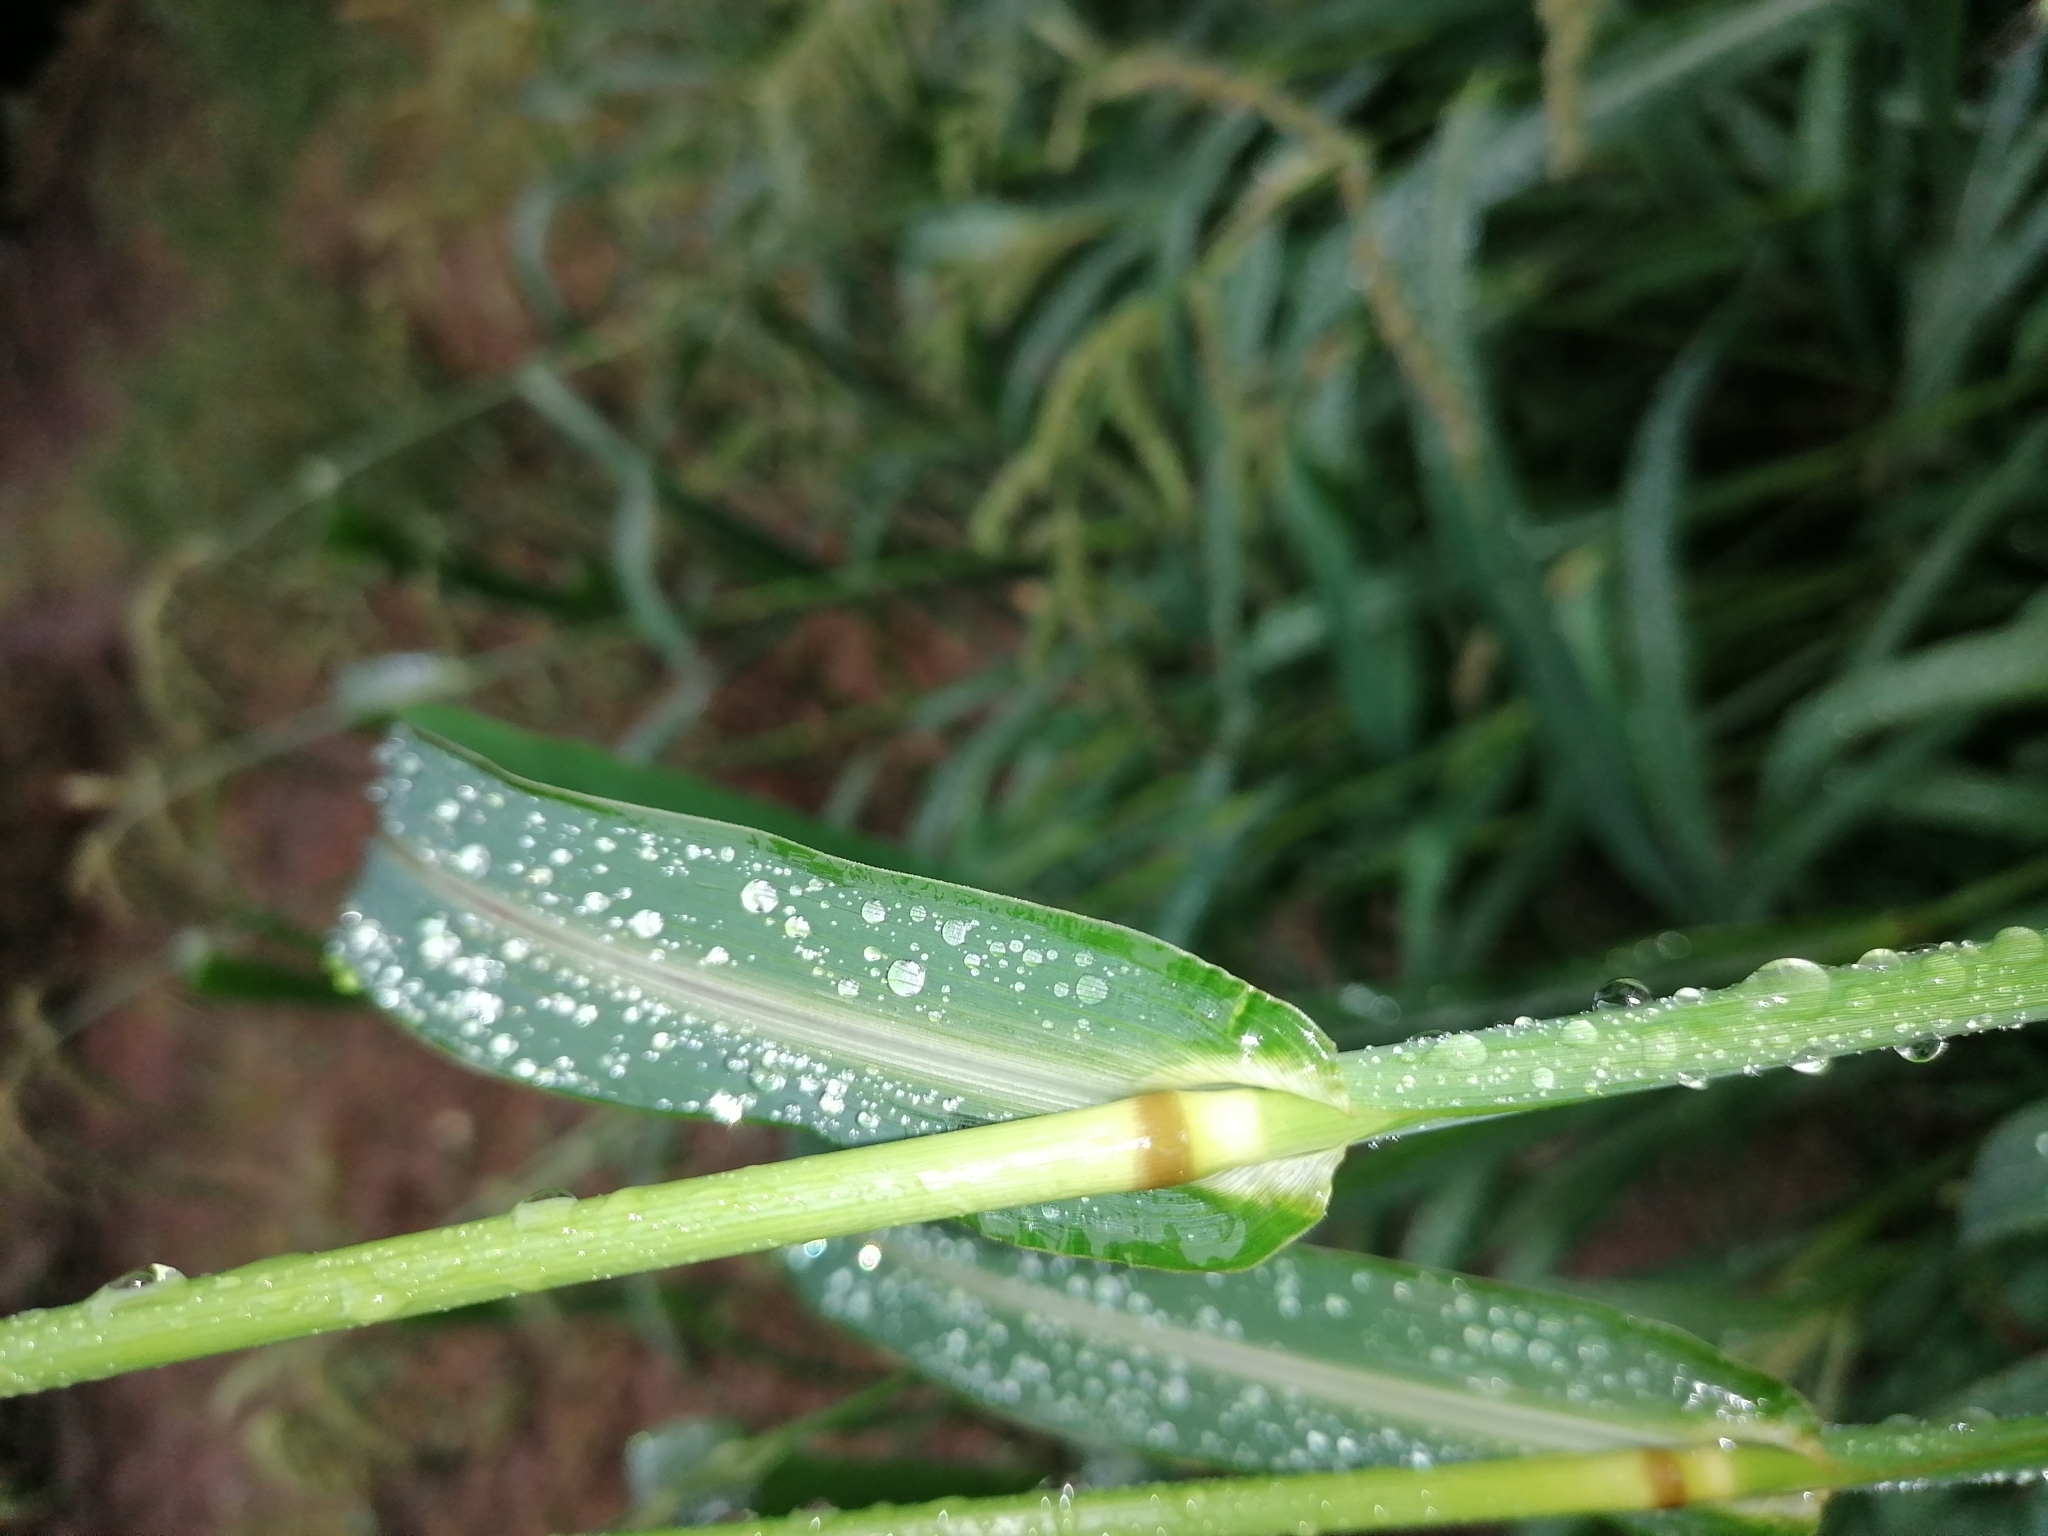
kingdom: Plantae
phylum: Tracheophyta
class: Liliopsida
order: Poales
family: Poaceae
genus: Echinochloa
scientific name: Echinochloa crus-galli
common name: Cockspur
